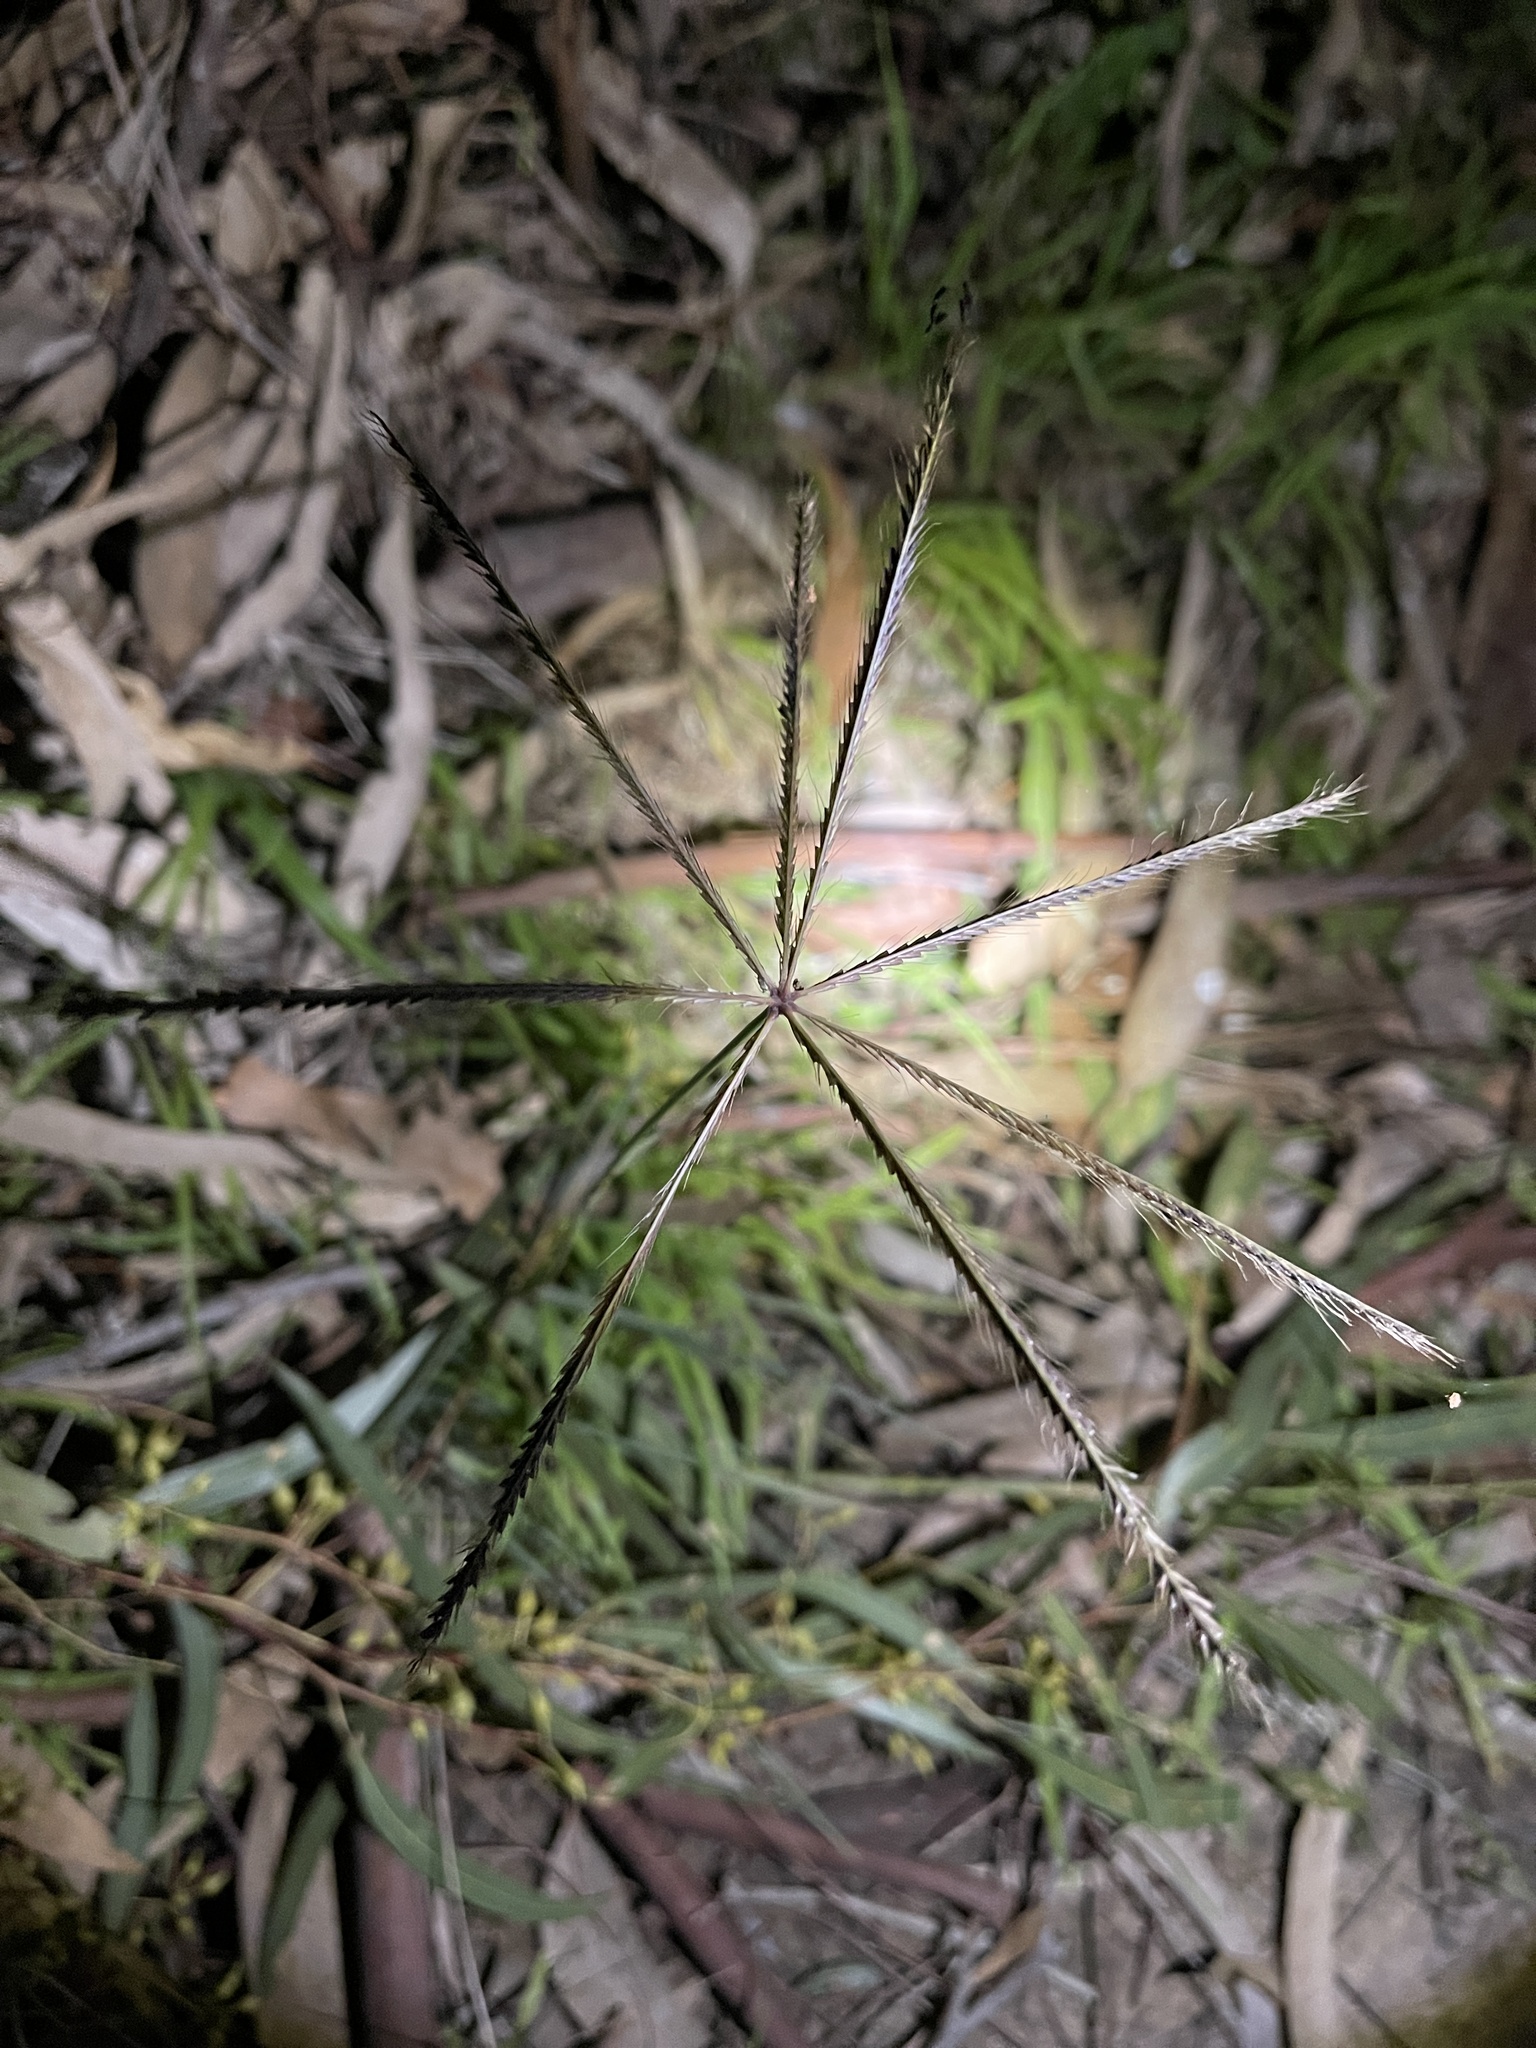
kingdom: Plantae
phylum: Tracheophyta
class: Liliopsida
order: Poales
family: Poaceae
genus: Chloris
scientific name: Chloris truncata
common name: Windmill-grass
